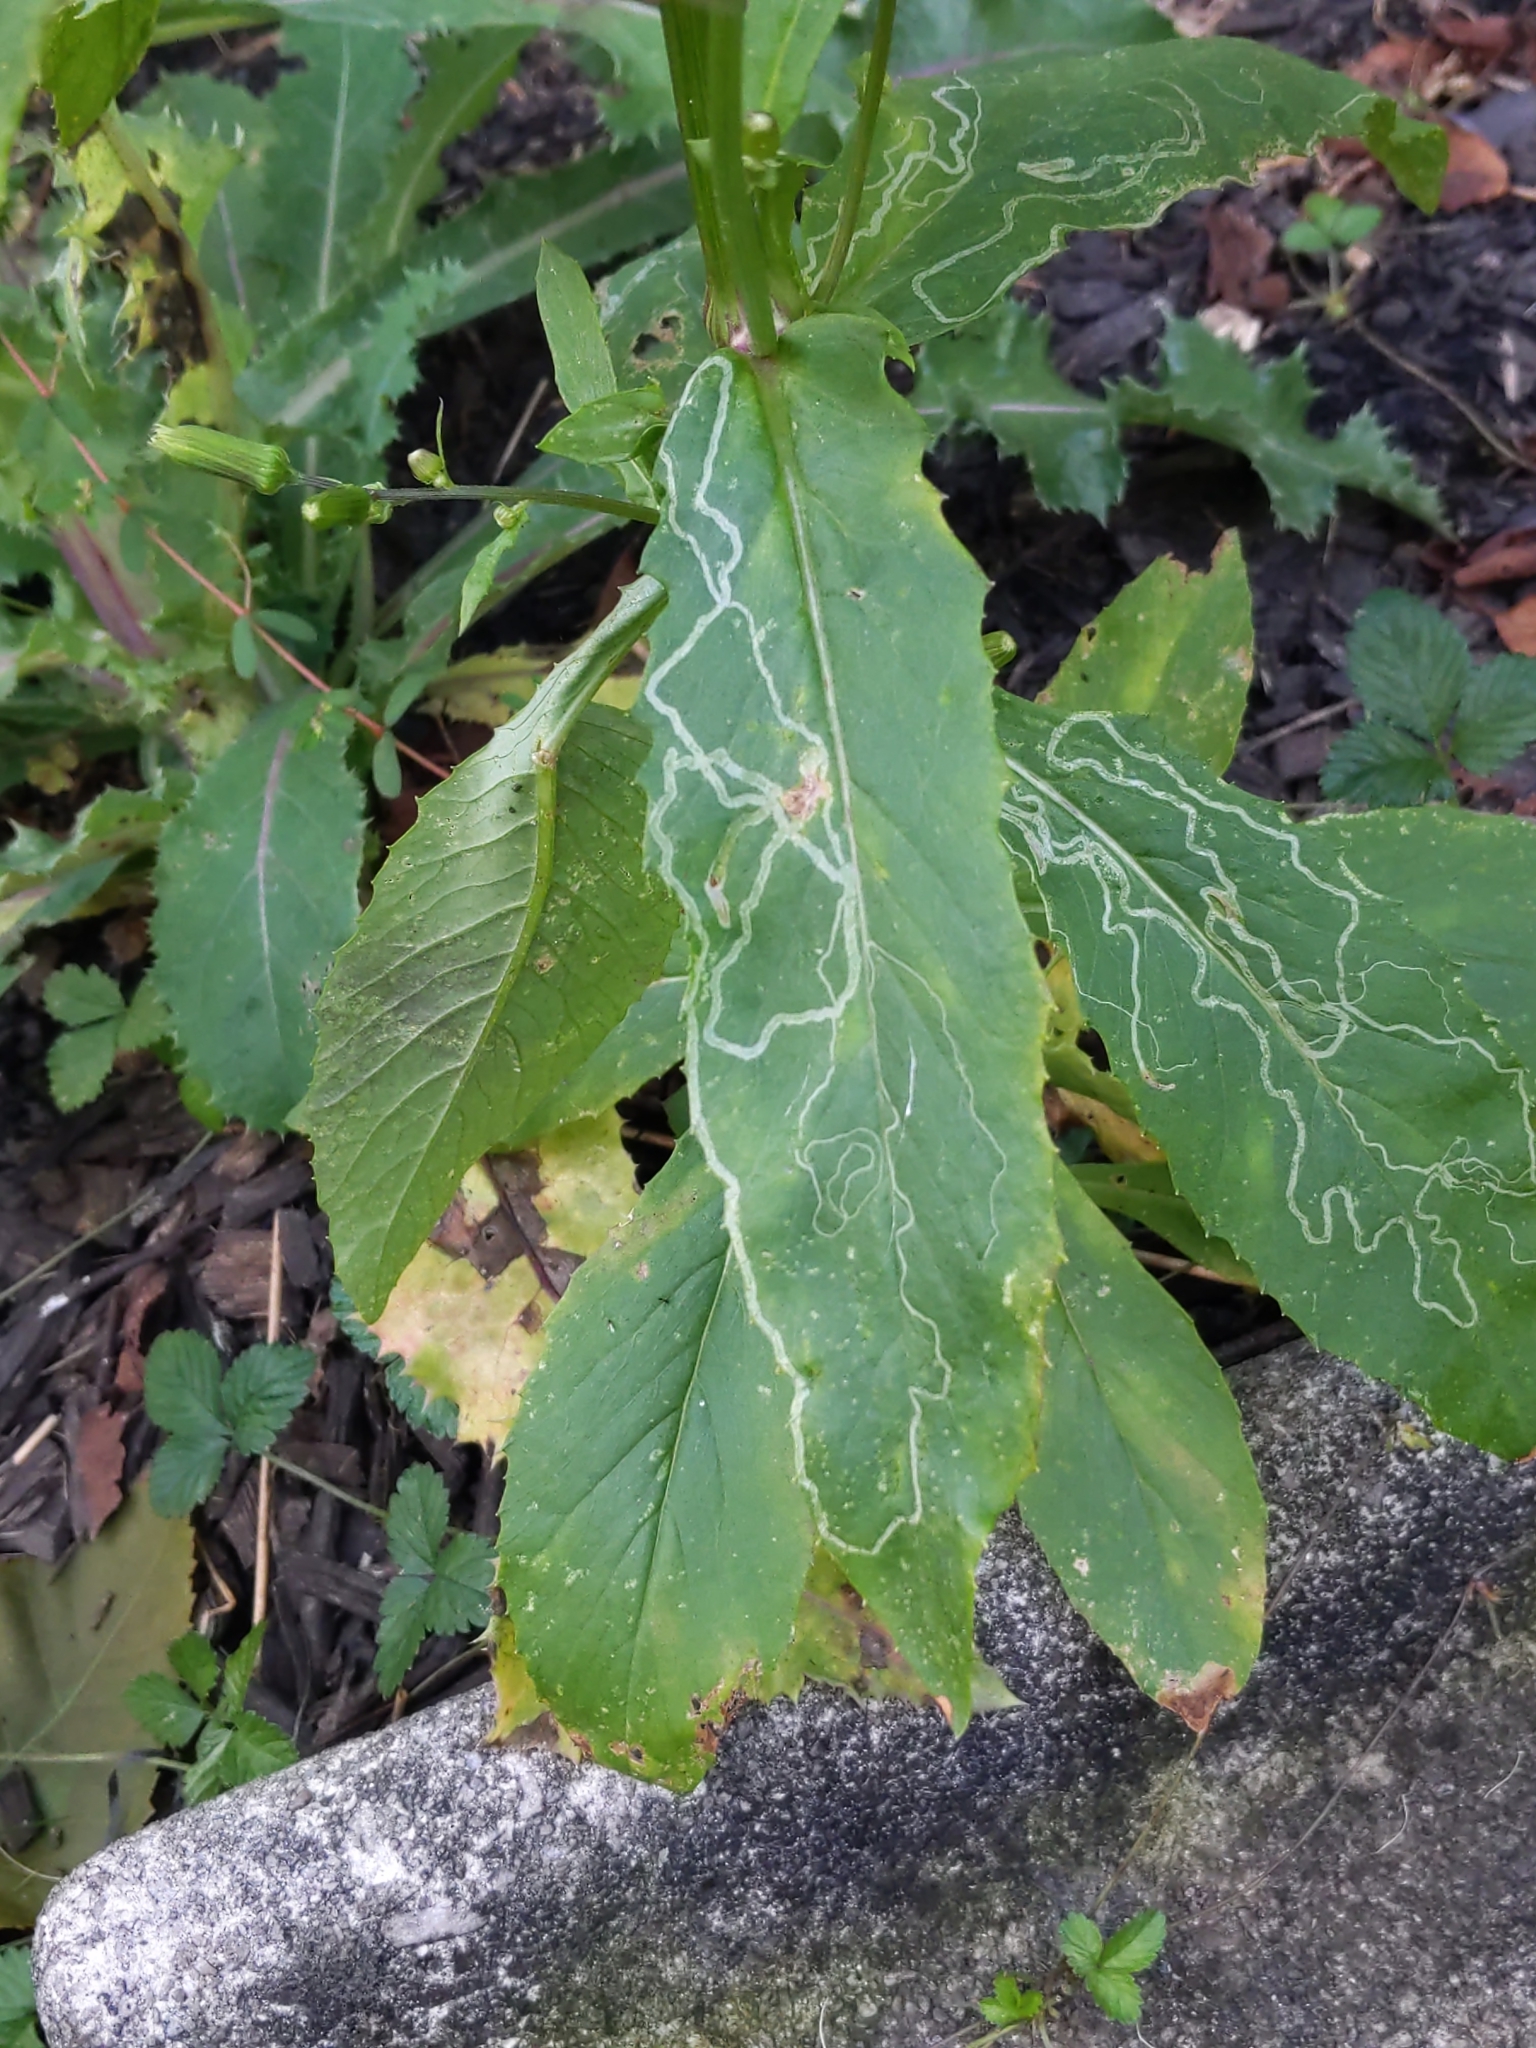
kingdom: Animalia
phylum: Arthropoda
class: Insecta
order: Lepidoptera
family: Gracillariidae
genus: Phyllocnistis
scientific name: Phyllocnistis insignis
